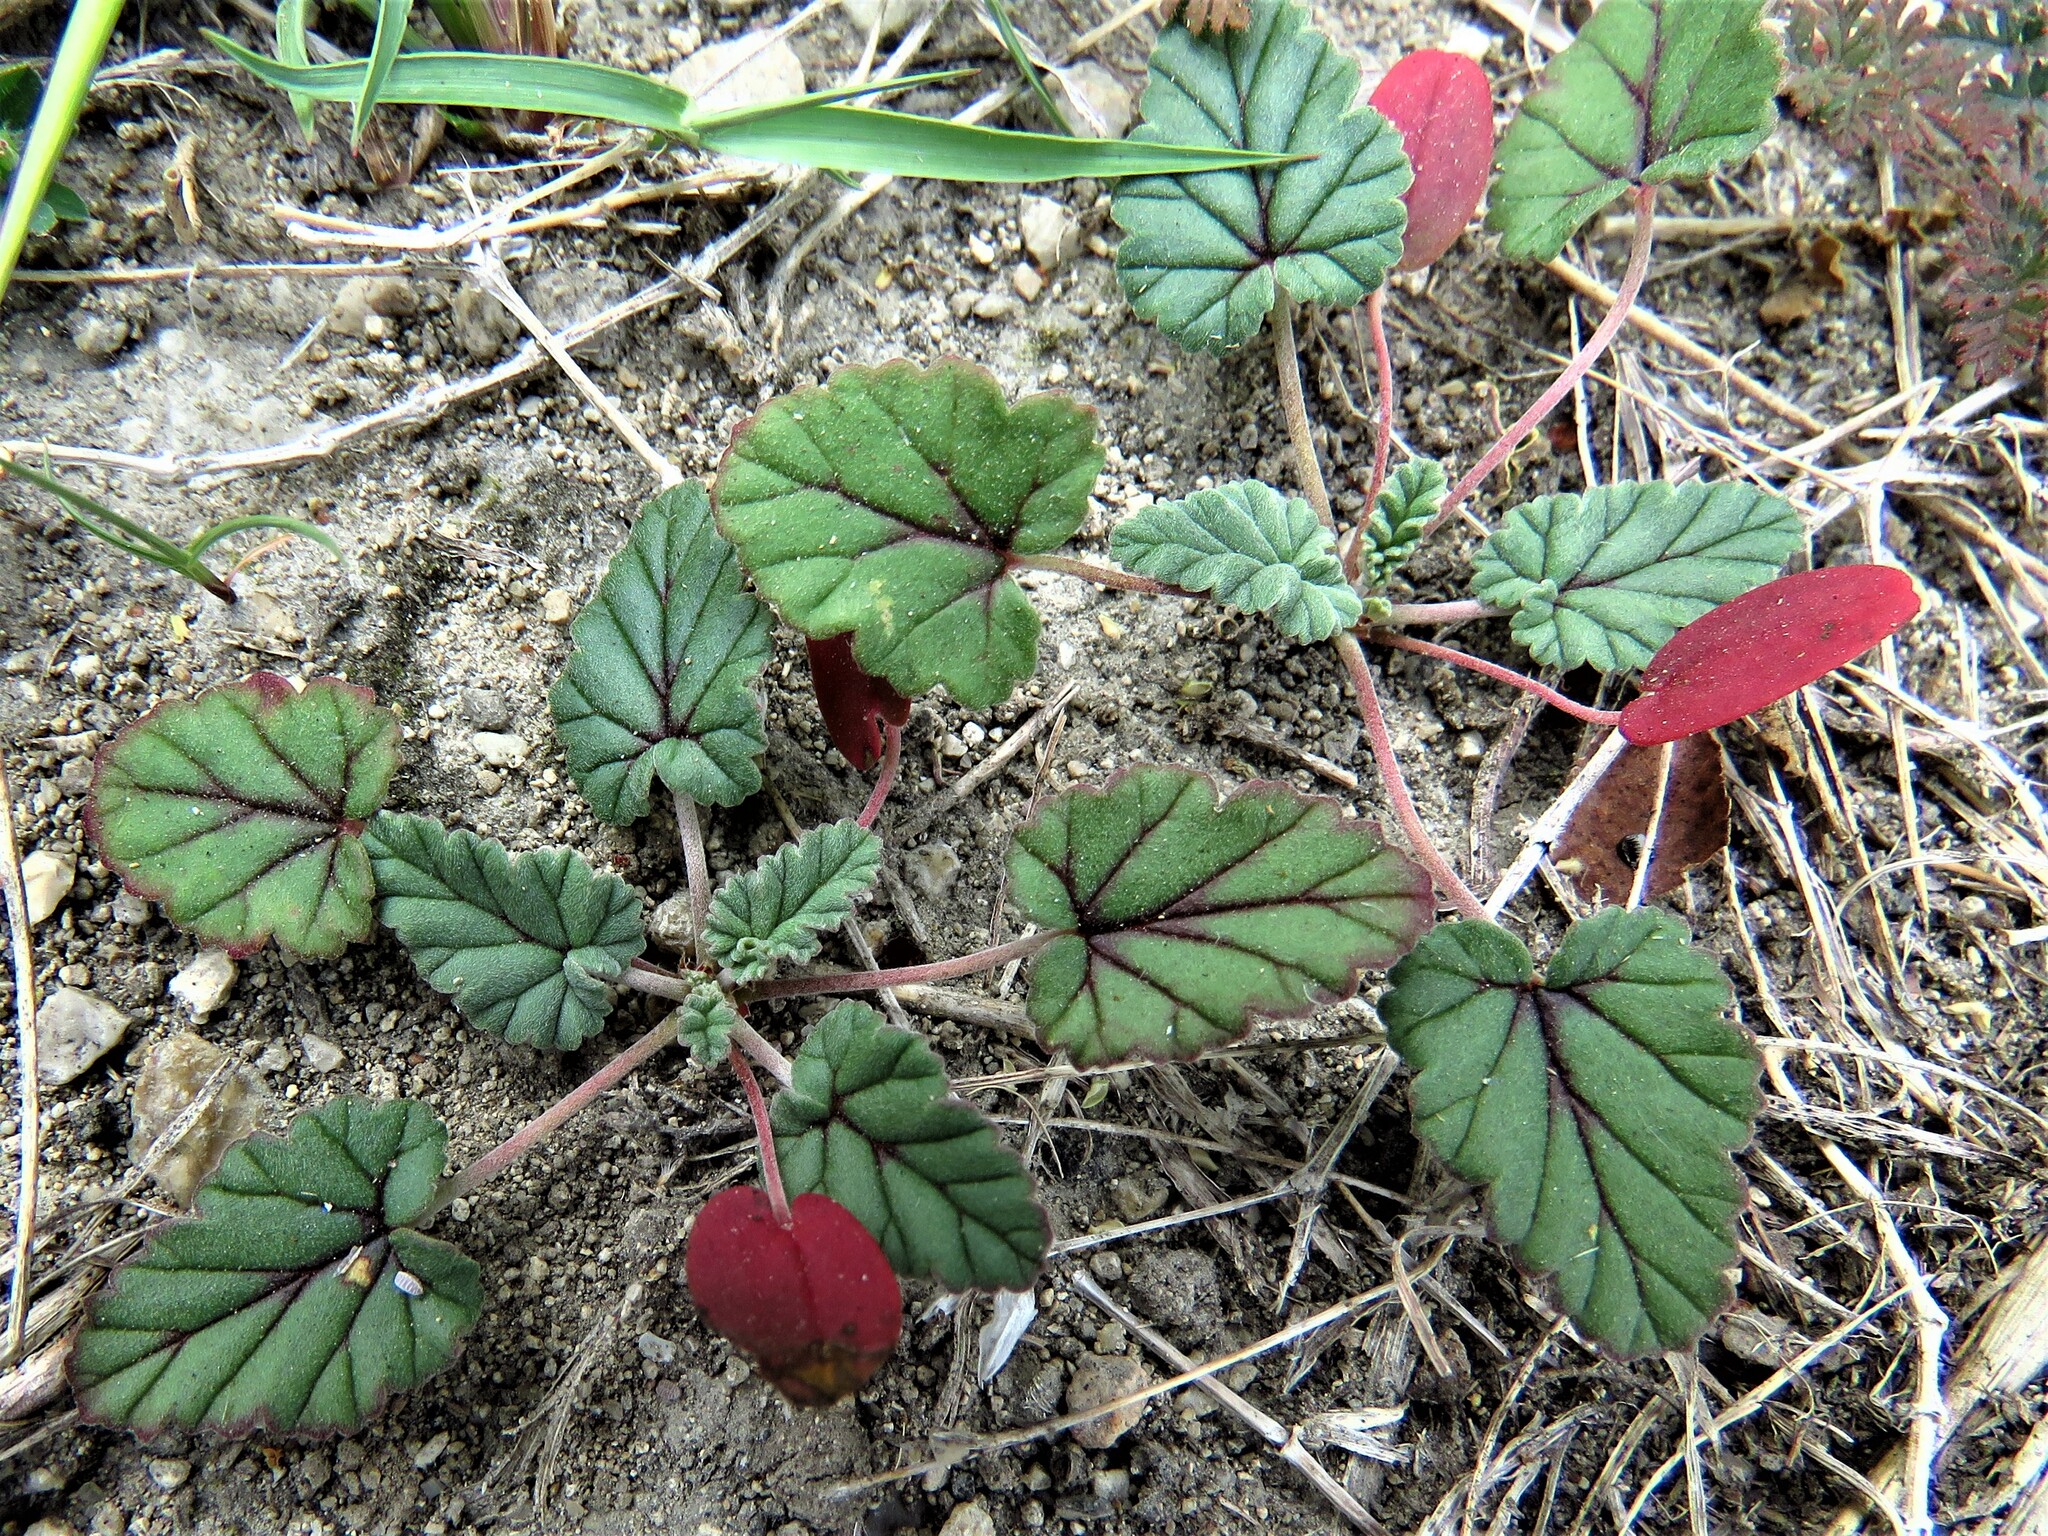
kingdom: Plantae
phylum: Tracheophyta
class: Magnoliopsida
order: Geraniales
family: Geraniaceae
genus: Erodium
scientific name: Erodium texanum
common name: Texas stork's-bill
